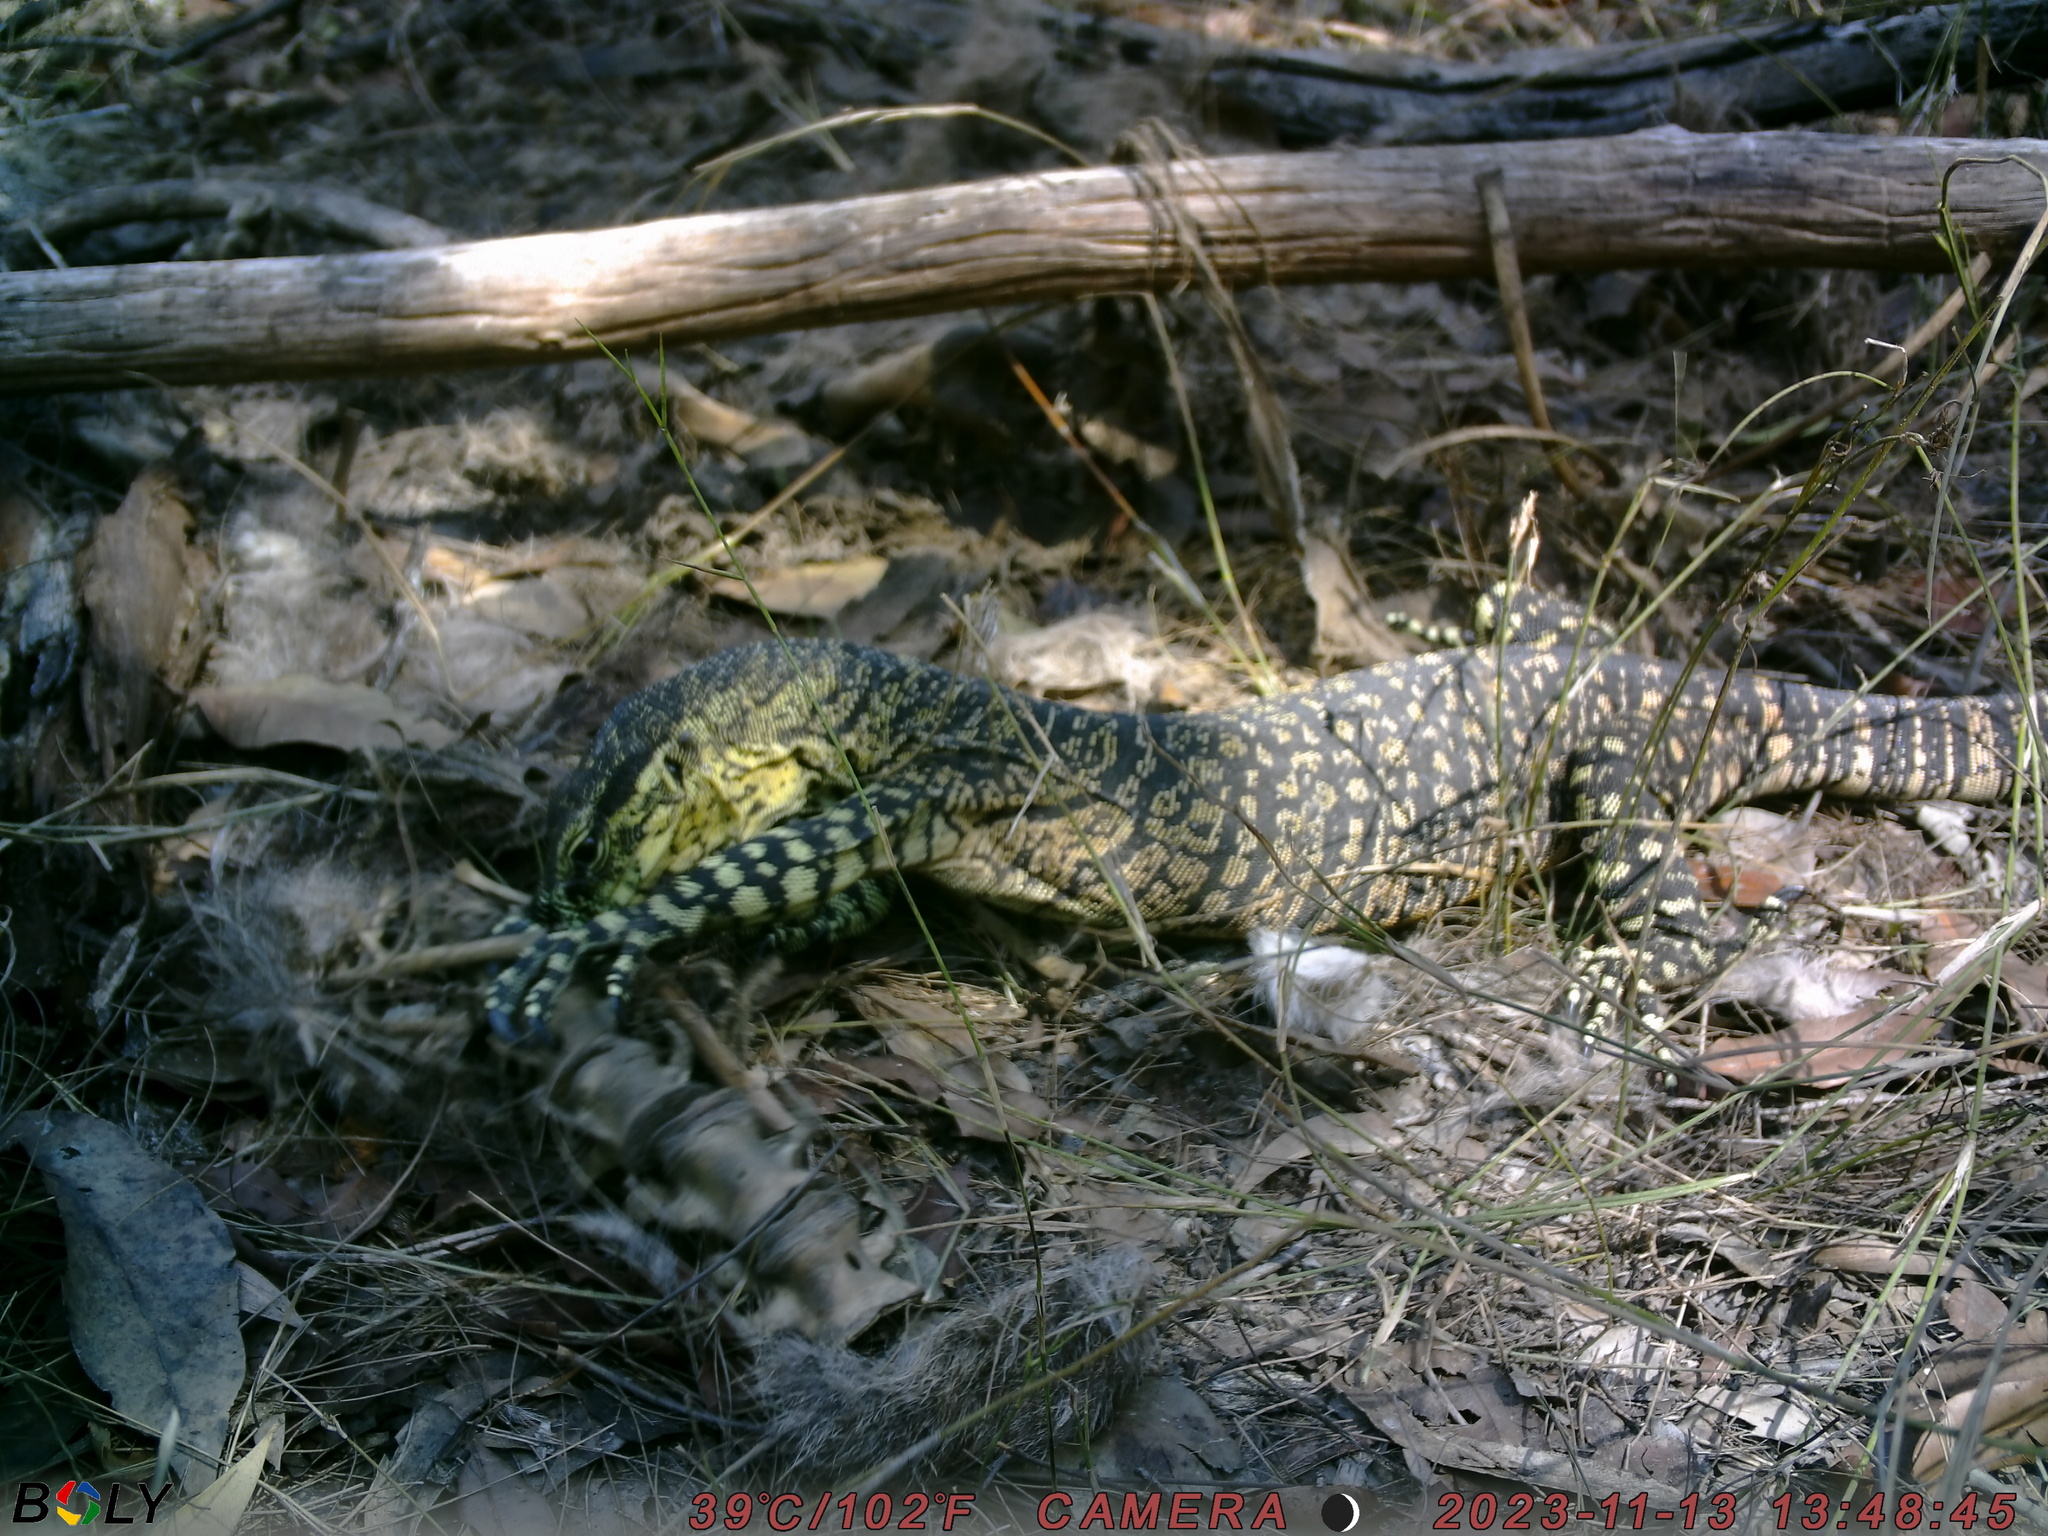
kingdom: Animalia
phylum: Chordata
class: Squamata
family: Varanidae
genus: Varanus
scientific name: Varanus varius
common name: Lace monitor
